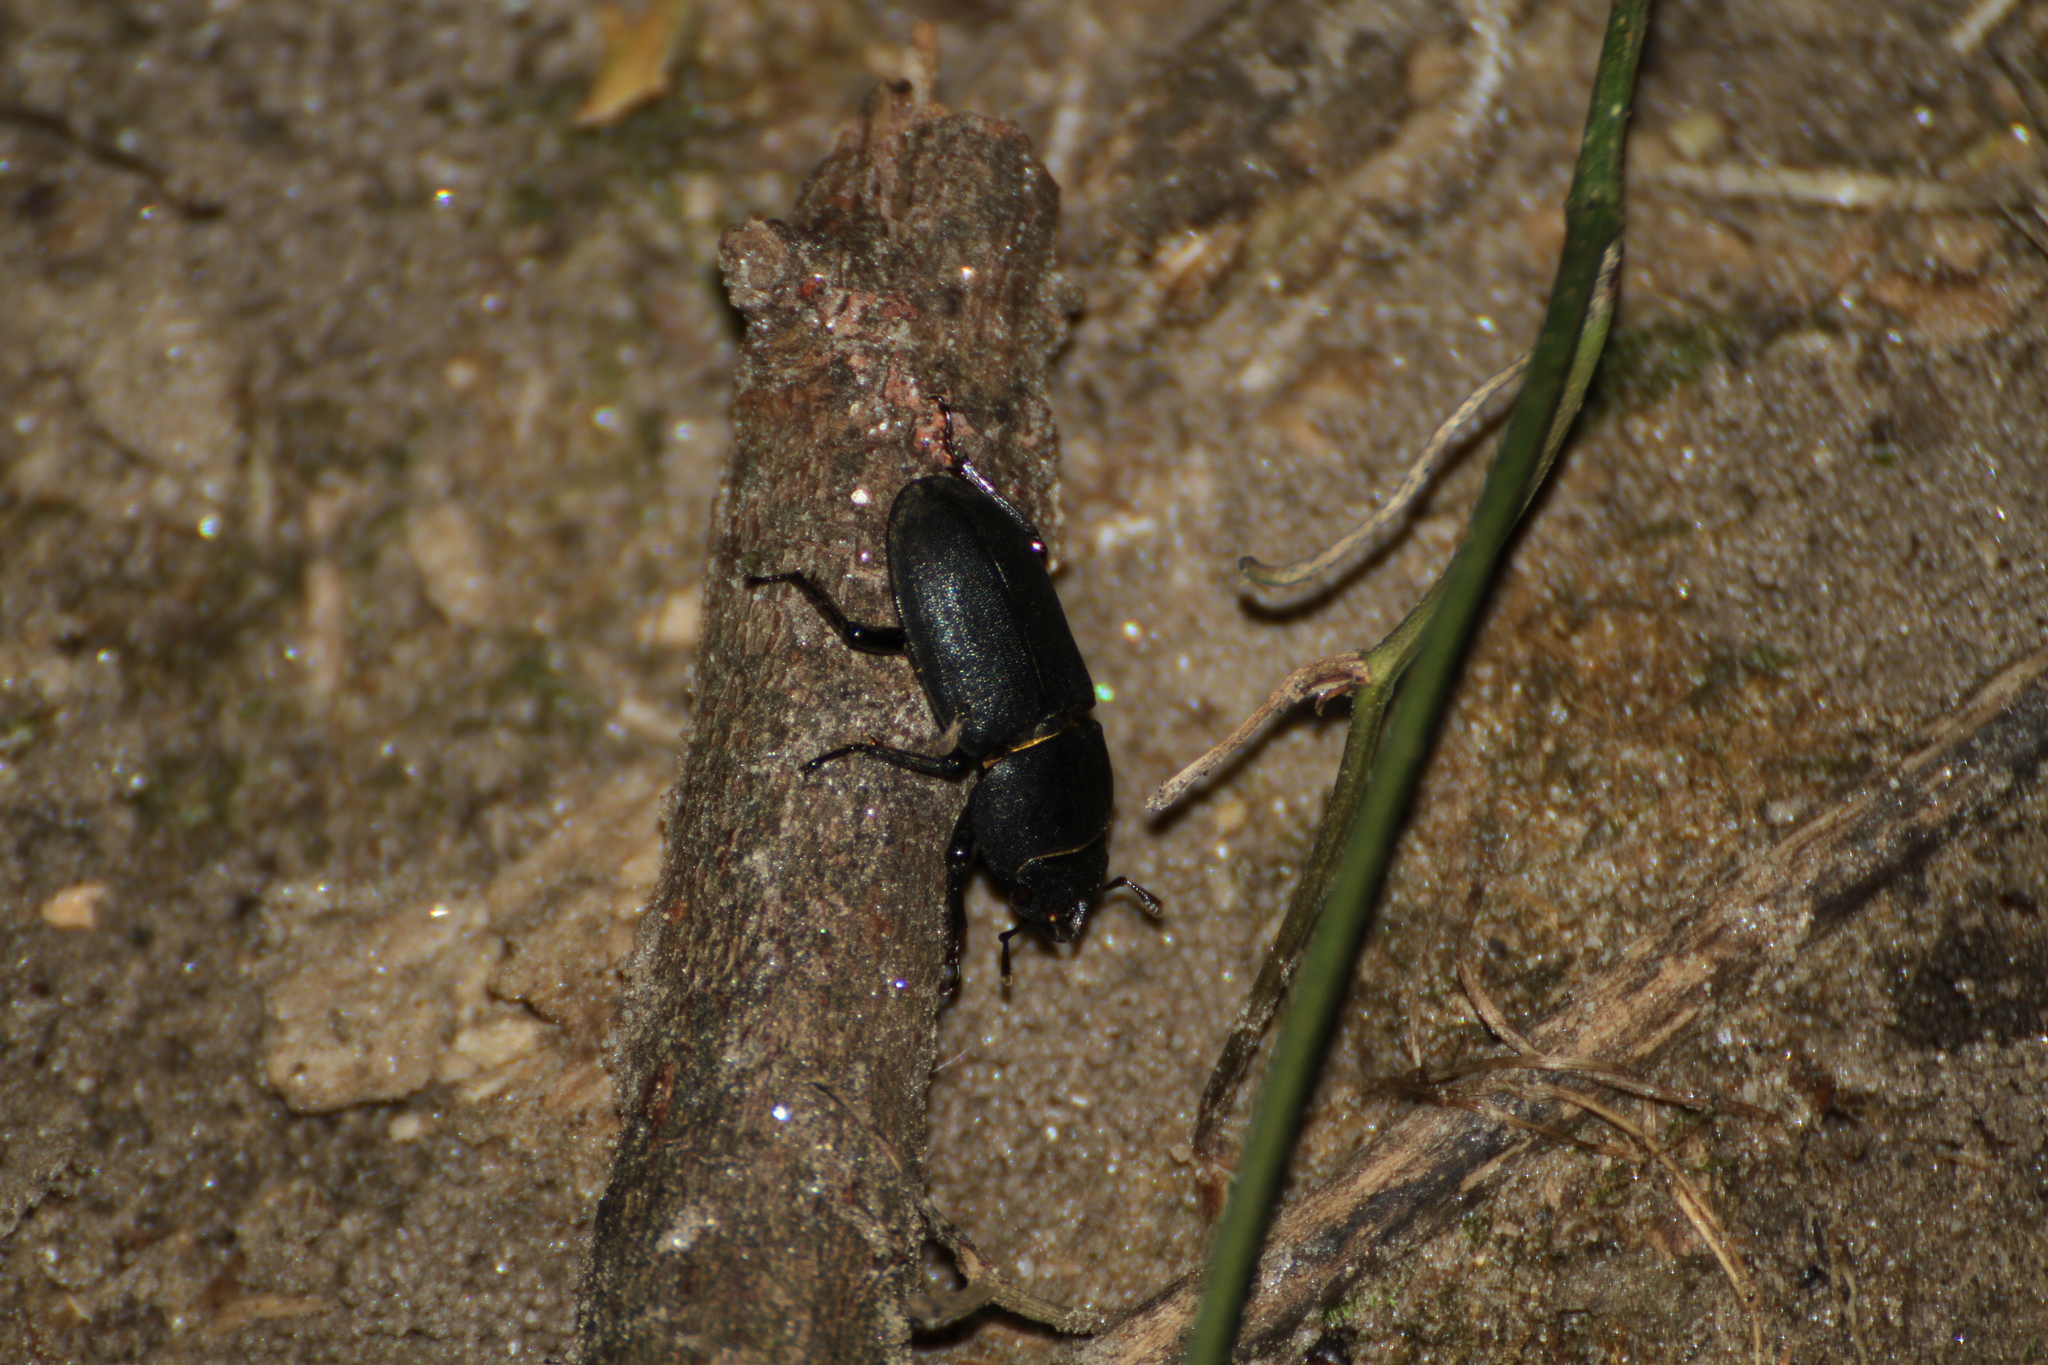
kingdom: Animalia
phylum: Arthropoda
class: Insecta
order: Coleoptera
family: Lucanidae
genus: Dorcus
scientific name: Dorcus parallelipipedus
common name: Lesser stag beetle
